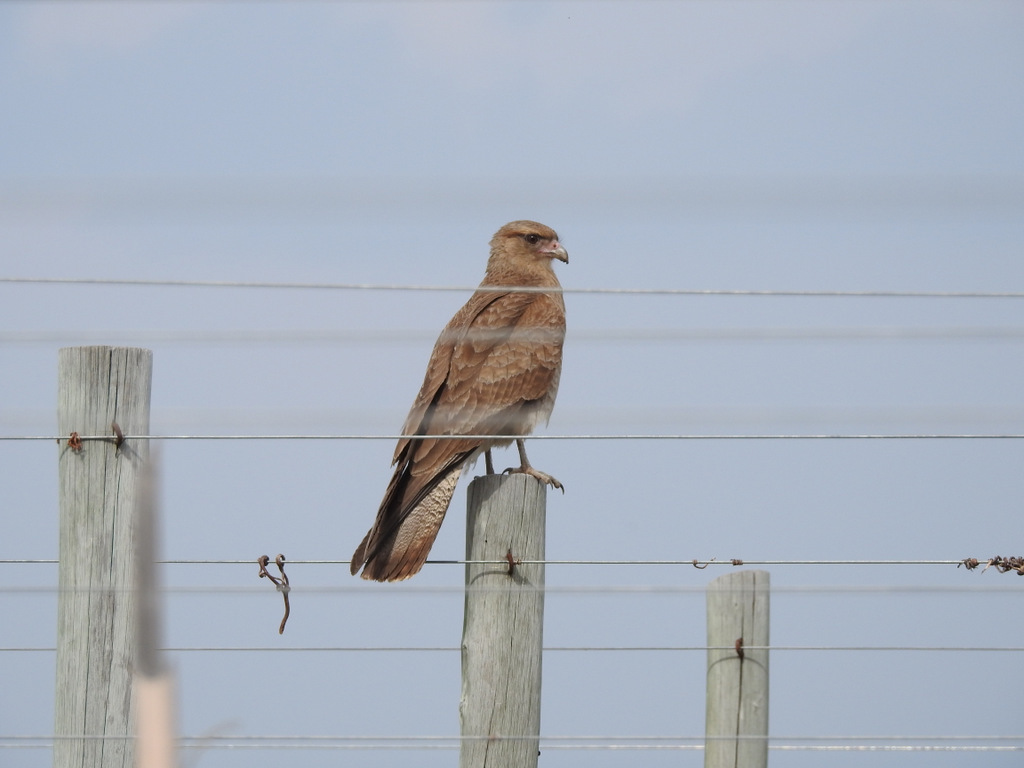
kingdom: Animalia
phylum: Chordata
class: Aves
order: Falconiformes
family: Falconidae
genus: Daptrius
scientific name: Daptrius
